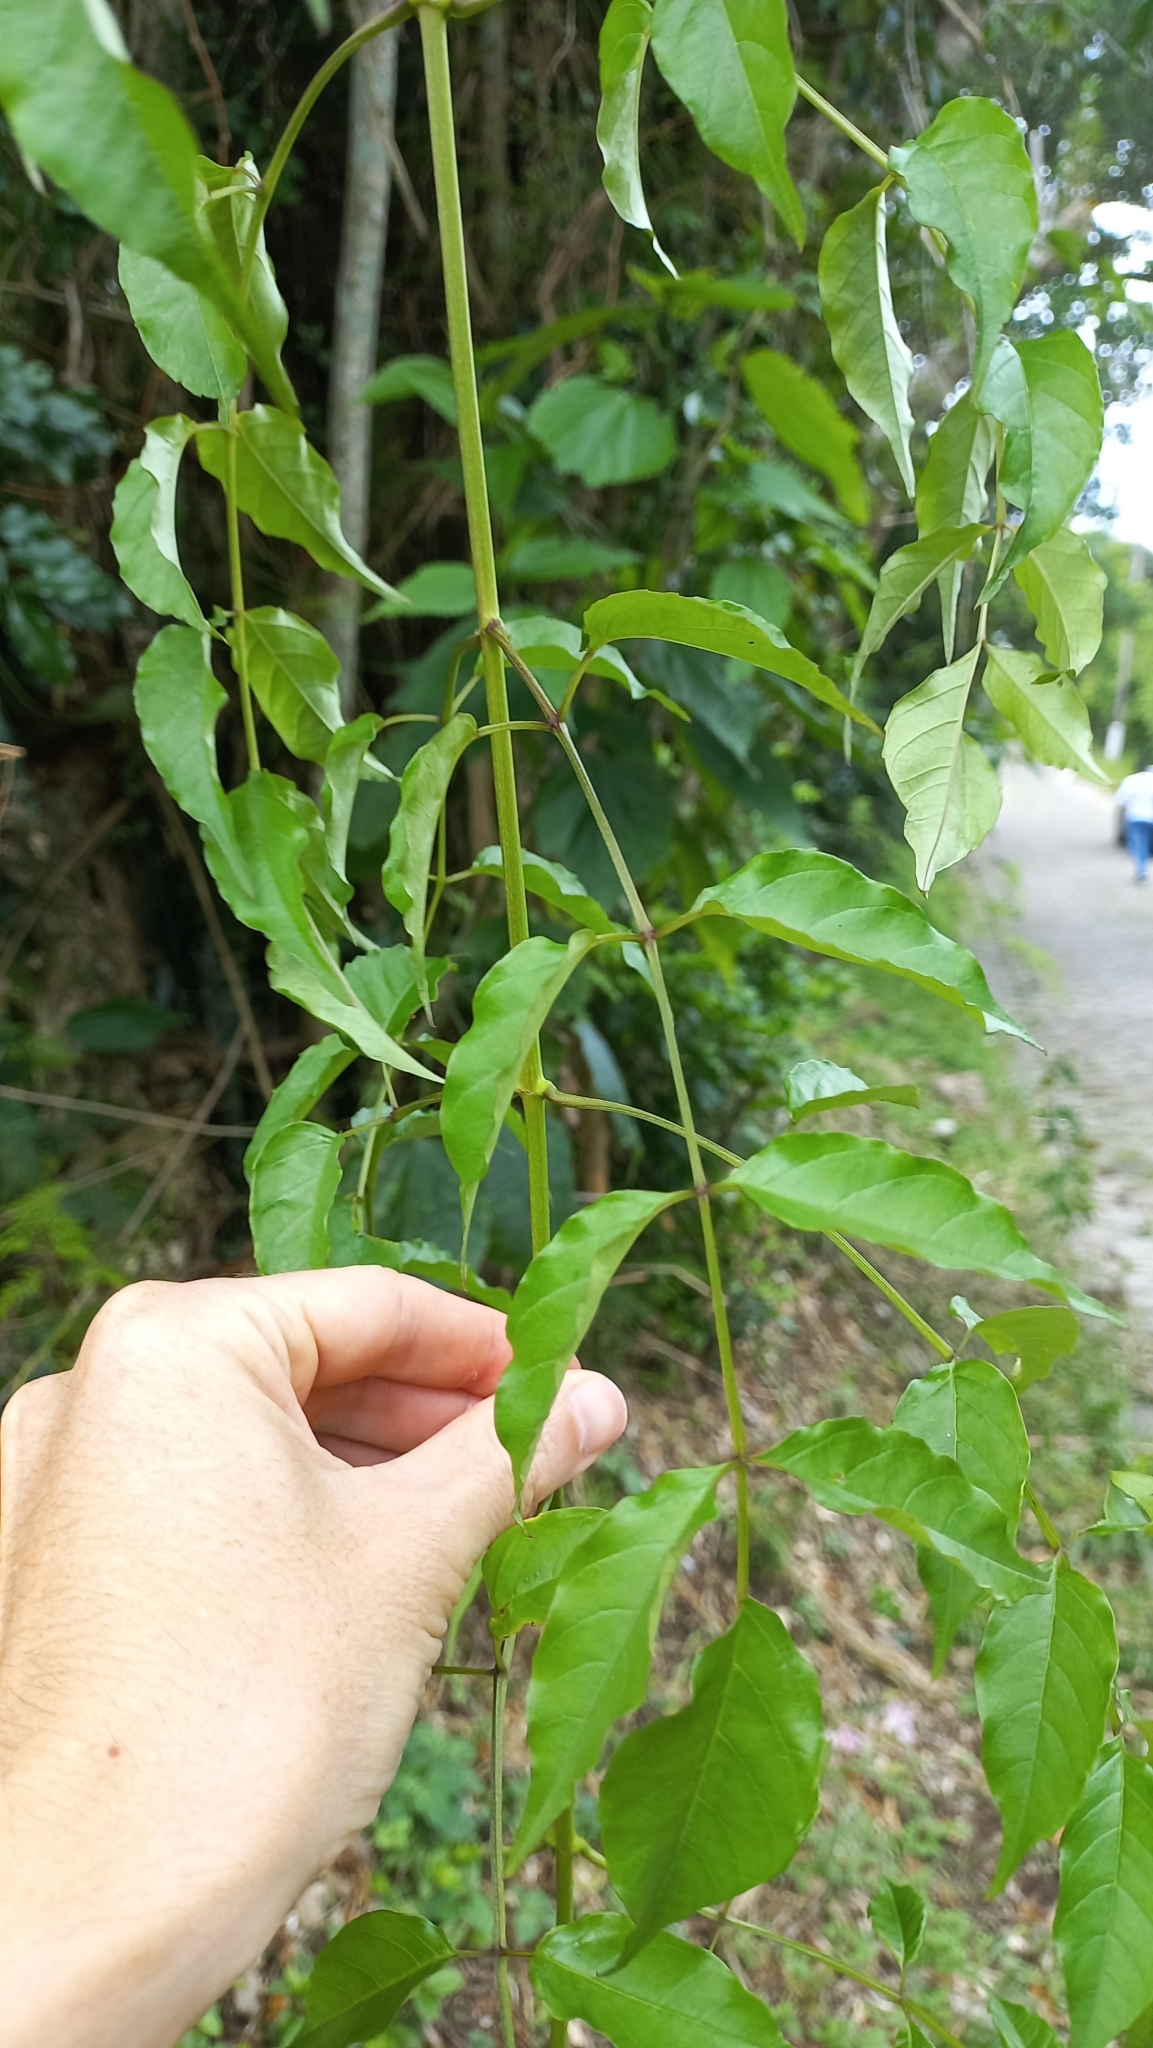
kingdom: Plantae
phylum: Tracheophyta
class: Magnoliopsida
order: Lamiales
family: Bignoniaceae
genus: Podranea
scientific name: Podranea ricasoliana
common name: Zimbabwe creeper
